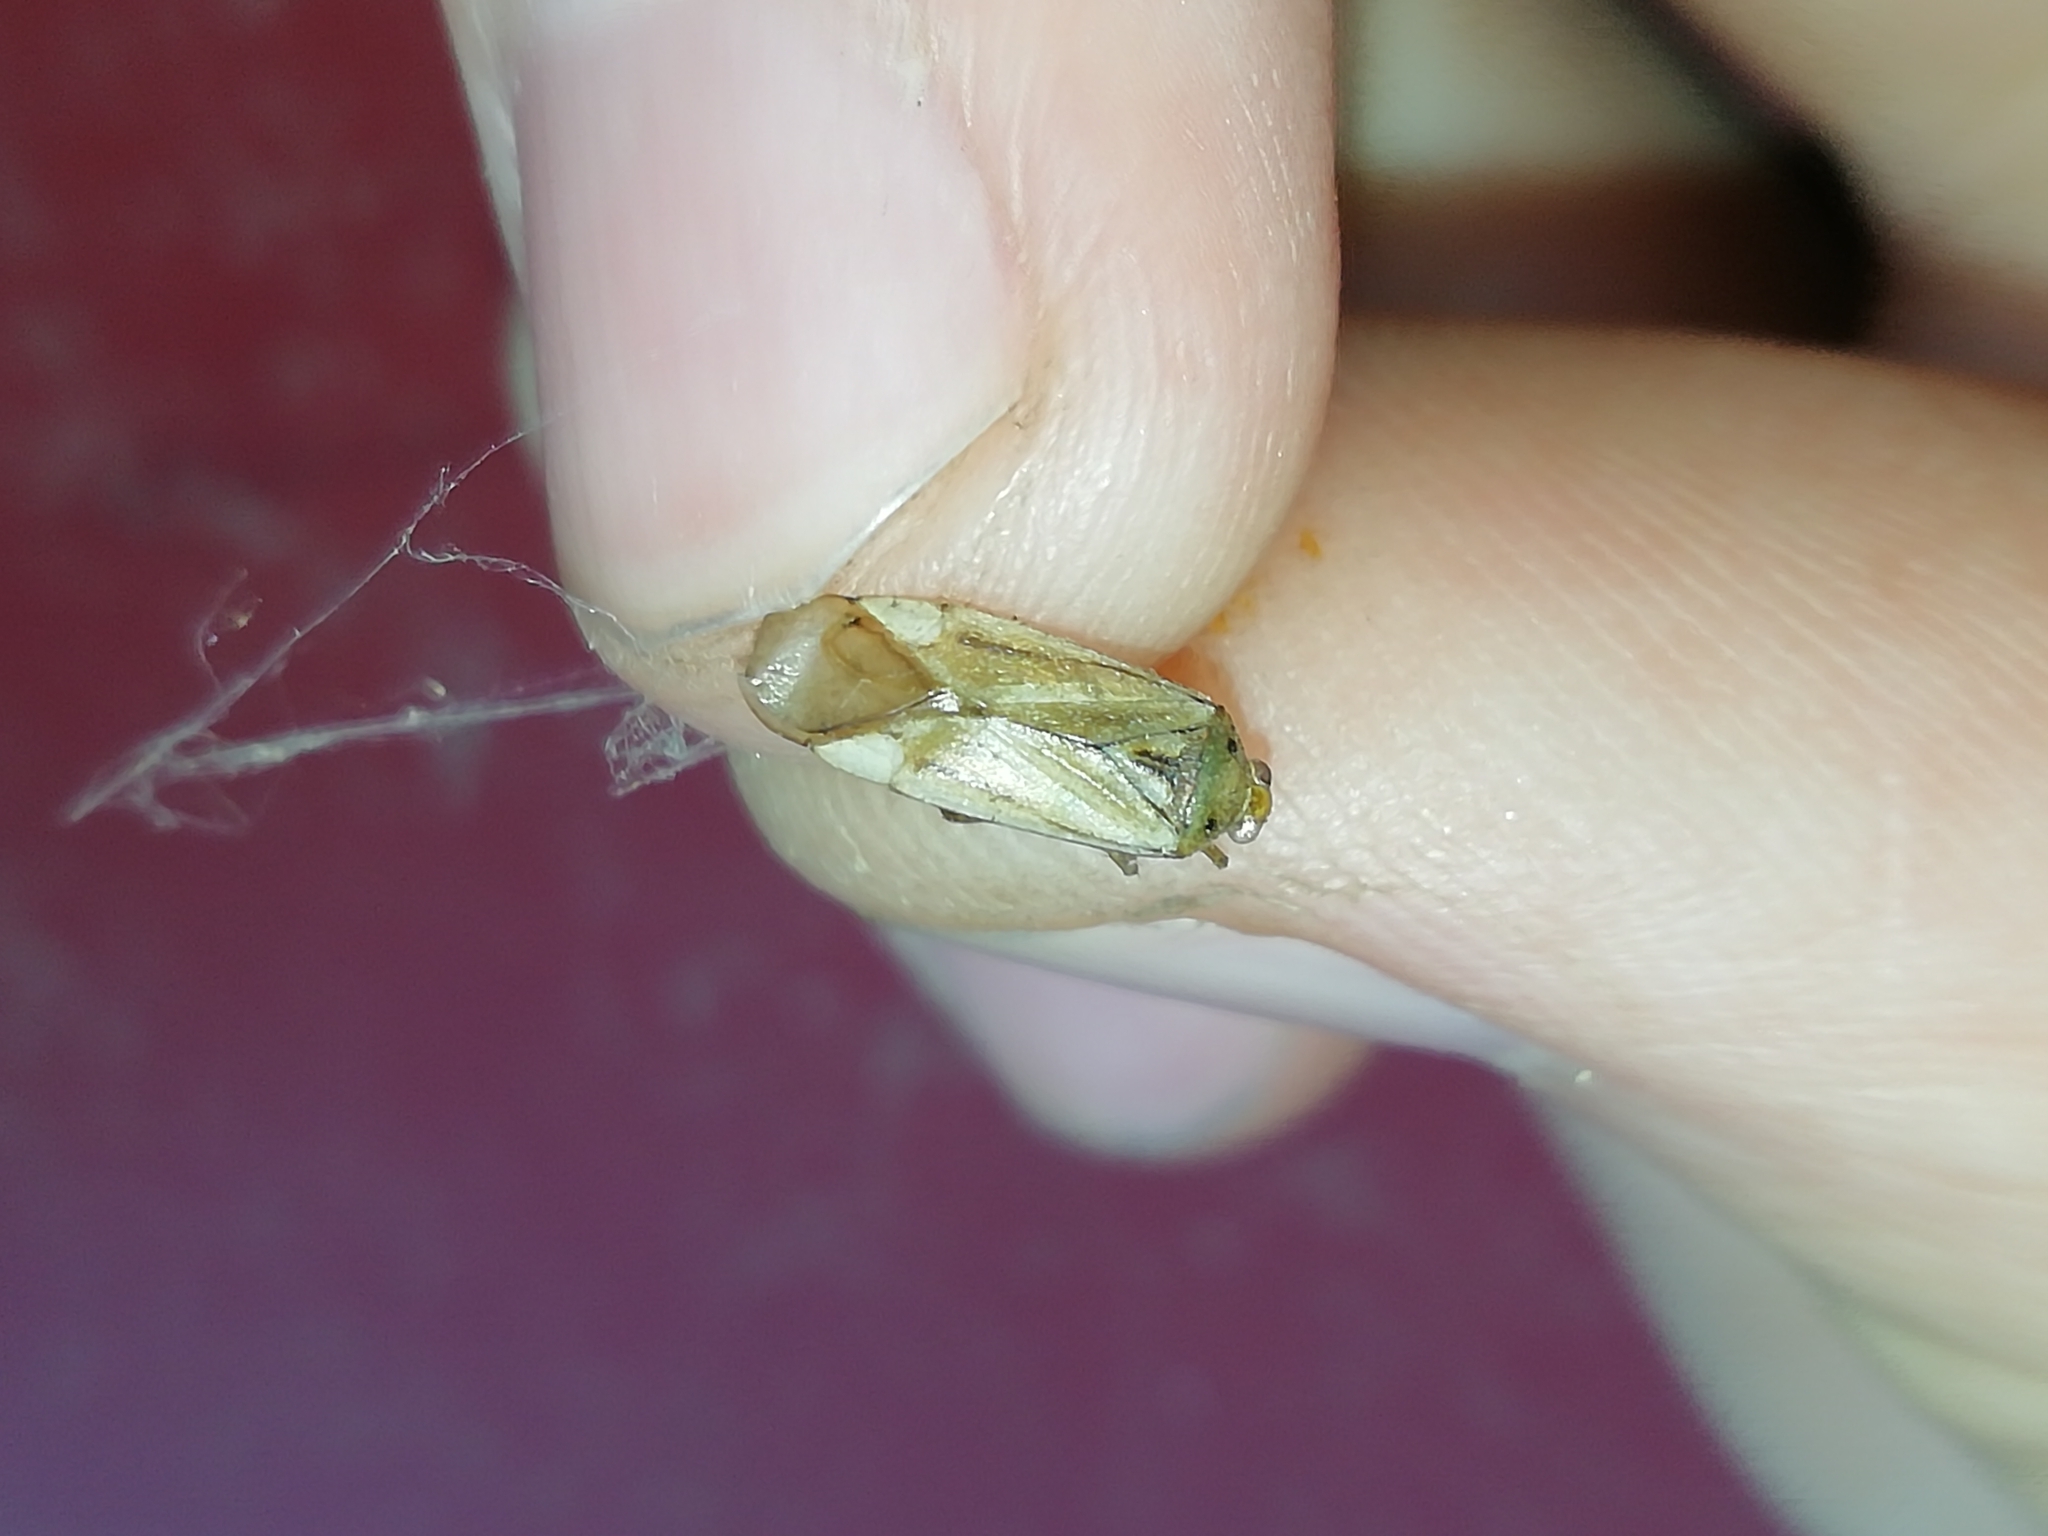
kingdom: Animalia
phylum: Arthropoda
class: Insecta
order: Hemiptera
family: Miridae
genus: Adelphocoris
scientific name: Adelphocoris lineolatus
